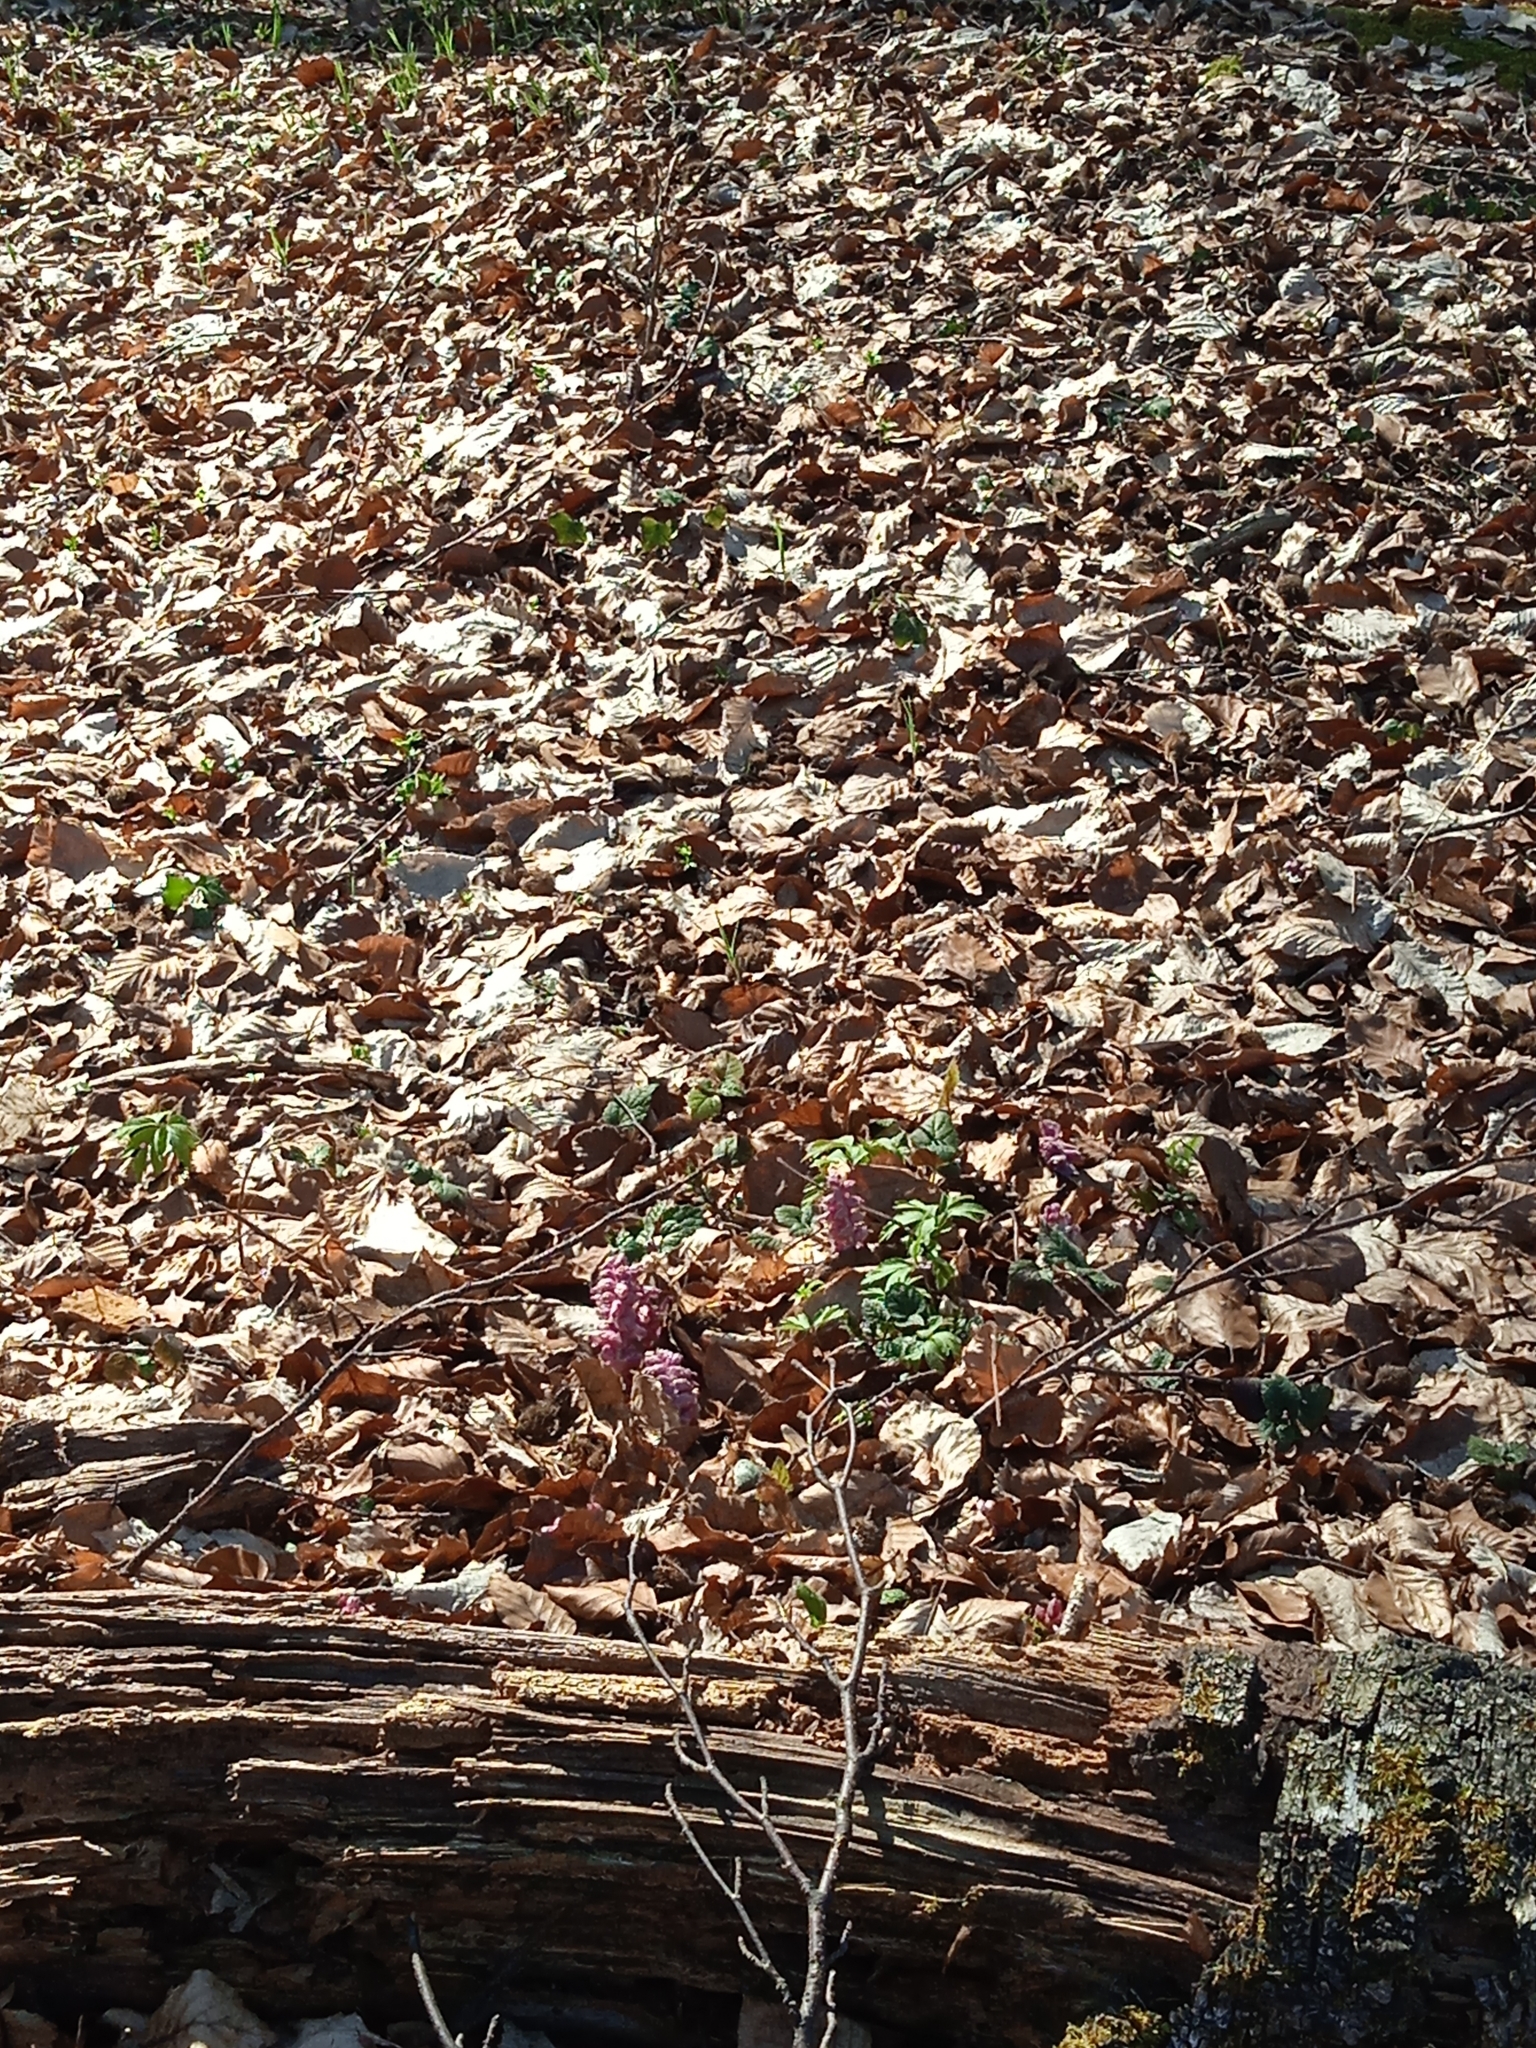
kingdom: Plantae
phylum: Tracheophyta
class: Magnoliopsida
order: Lamiales
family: Orobanchaceae
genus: Lathraea
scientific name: Lathraea squamaria
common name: Toothwort
